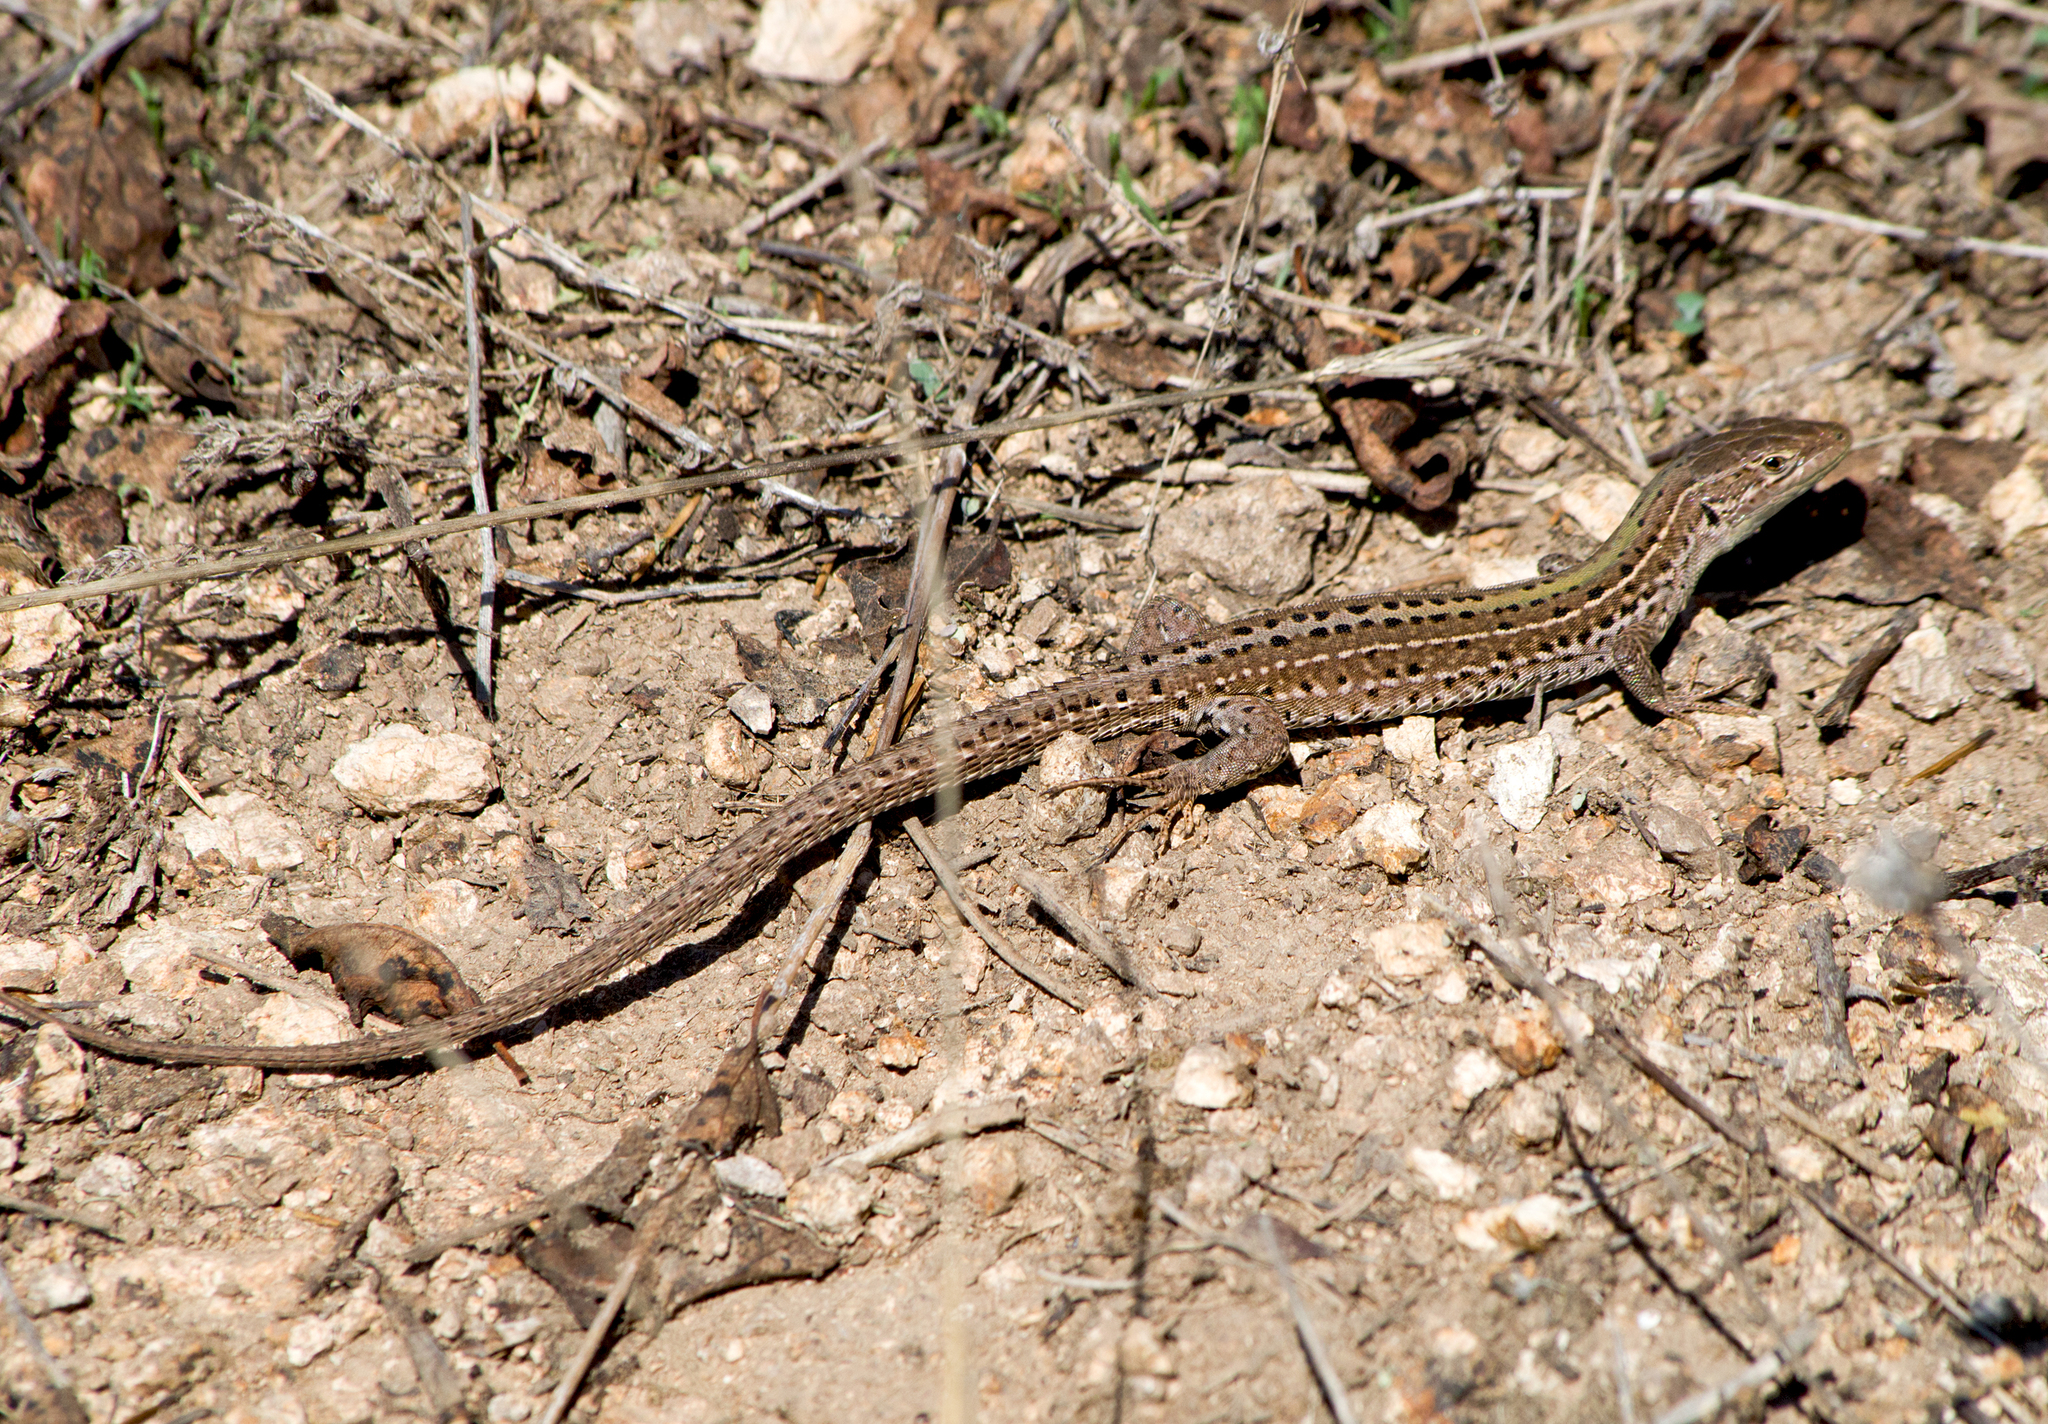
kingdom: Animalia
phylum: Chordata
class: Squamata
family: Lacertidae
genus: Podarcis
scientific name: Podarcis tauricus
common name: Balkan wall lizard
